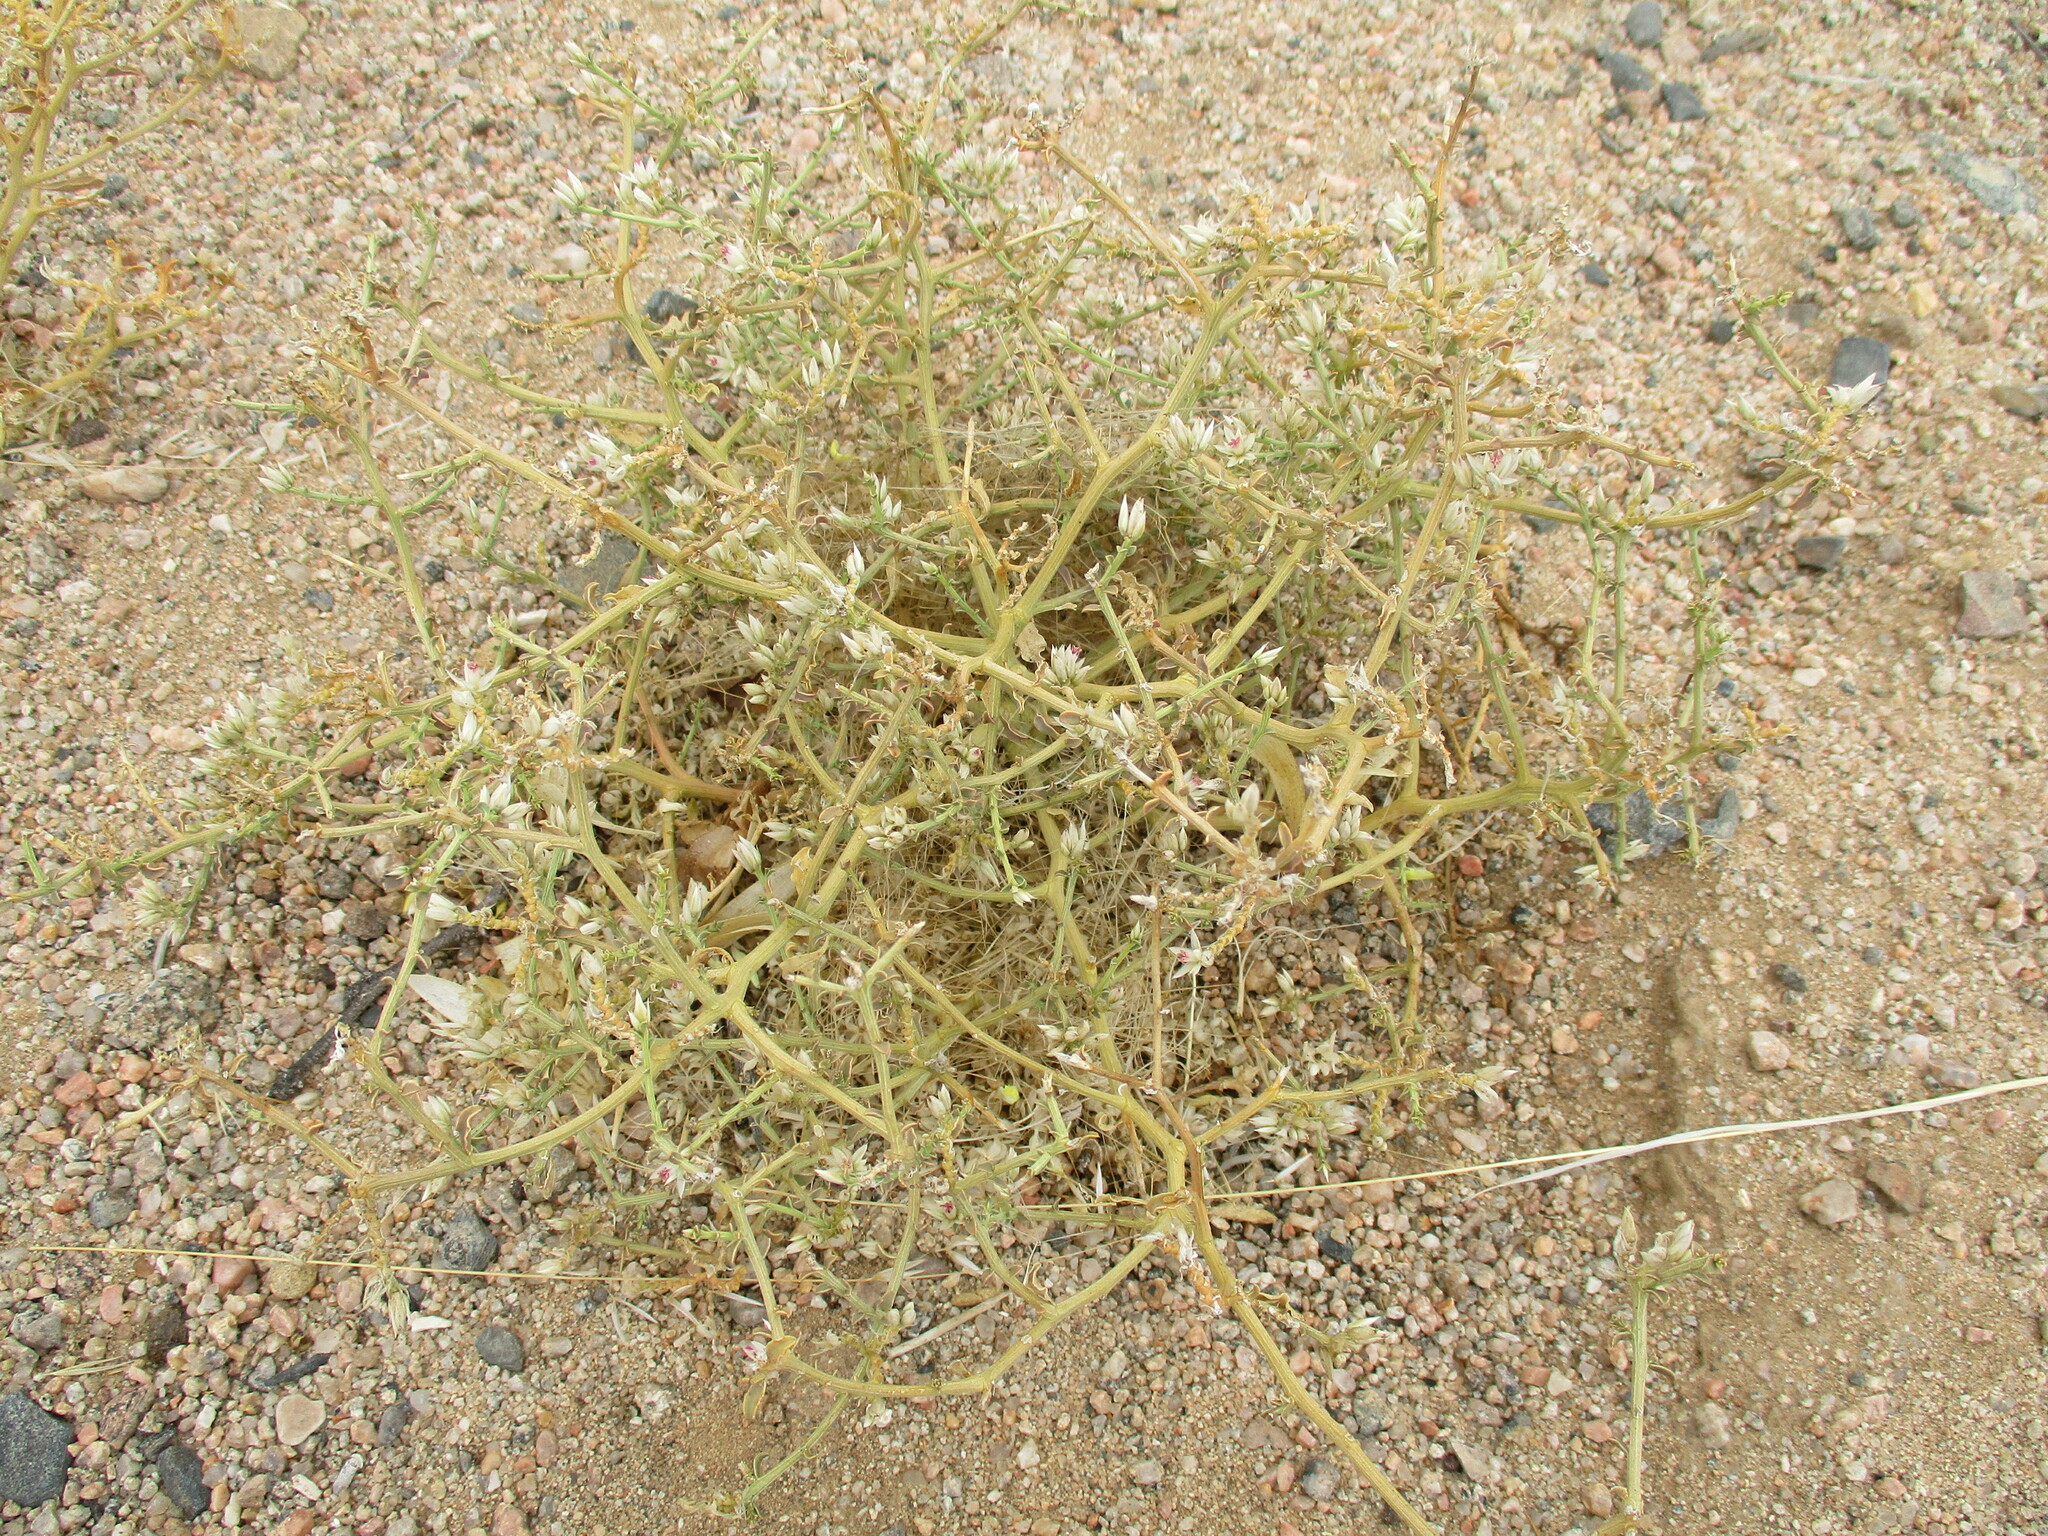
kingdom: Plantae
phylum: Tracheophyta
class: Magnoliopsida
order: Caryophyllales
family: Amaranthaceae
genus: Hermbstaedtia
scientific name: Hermbstaedtia spathulifolia
